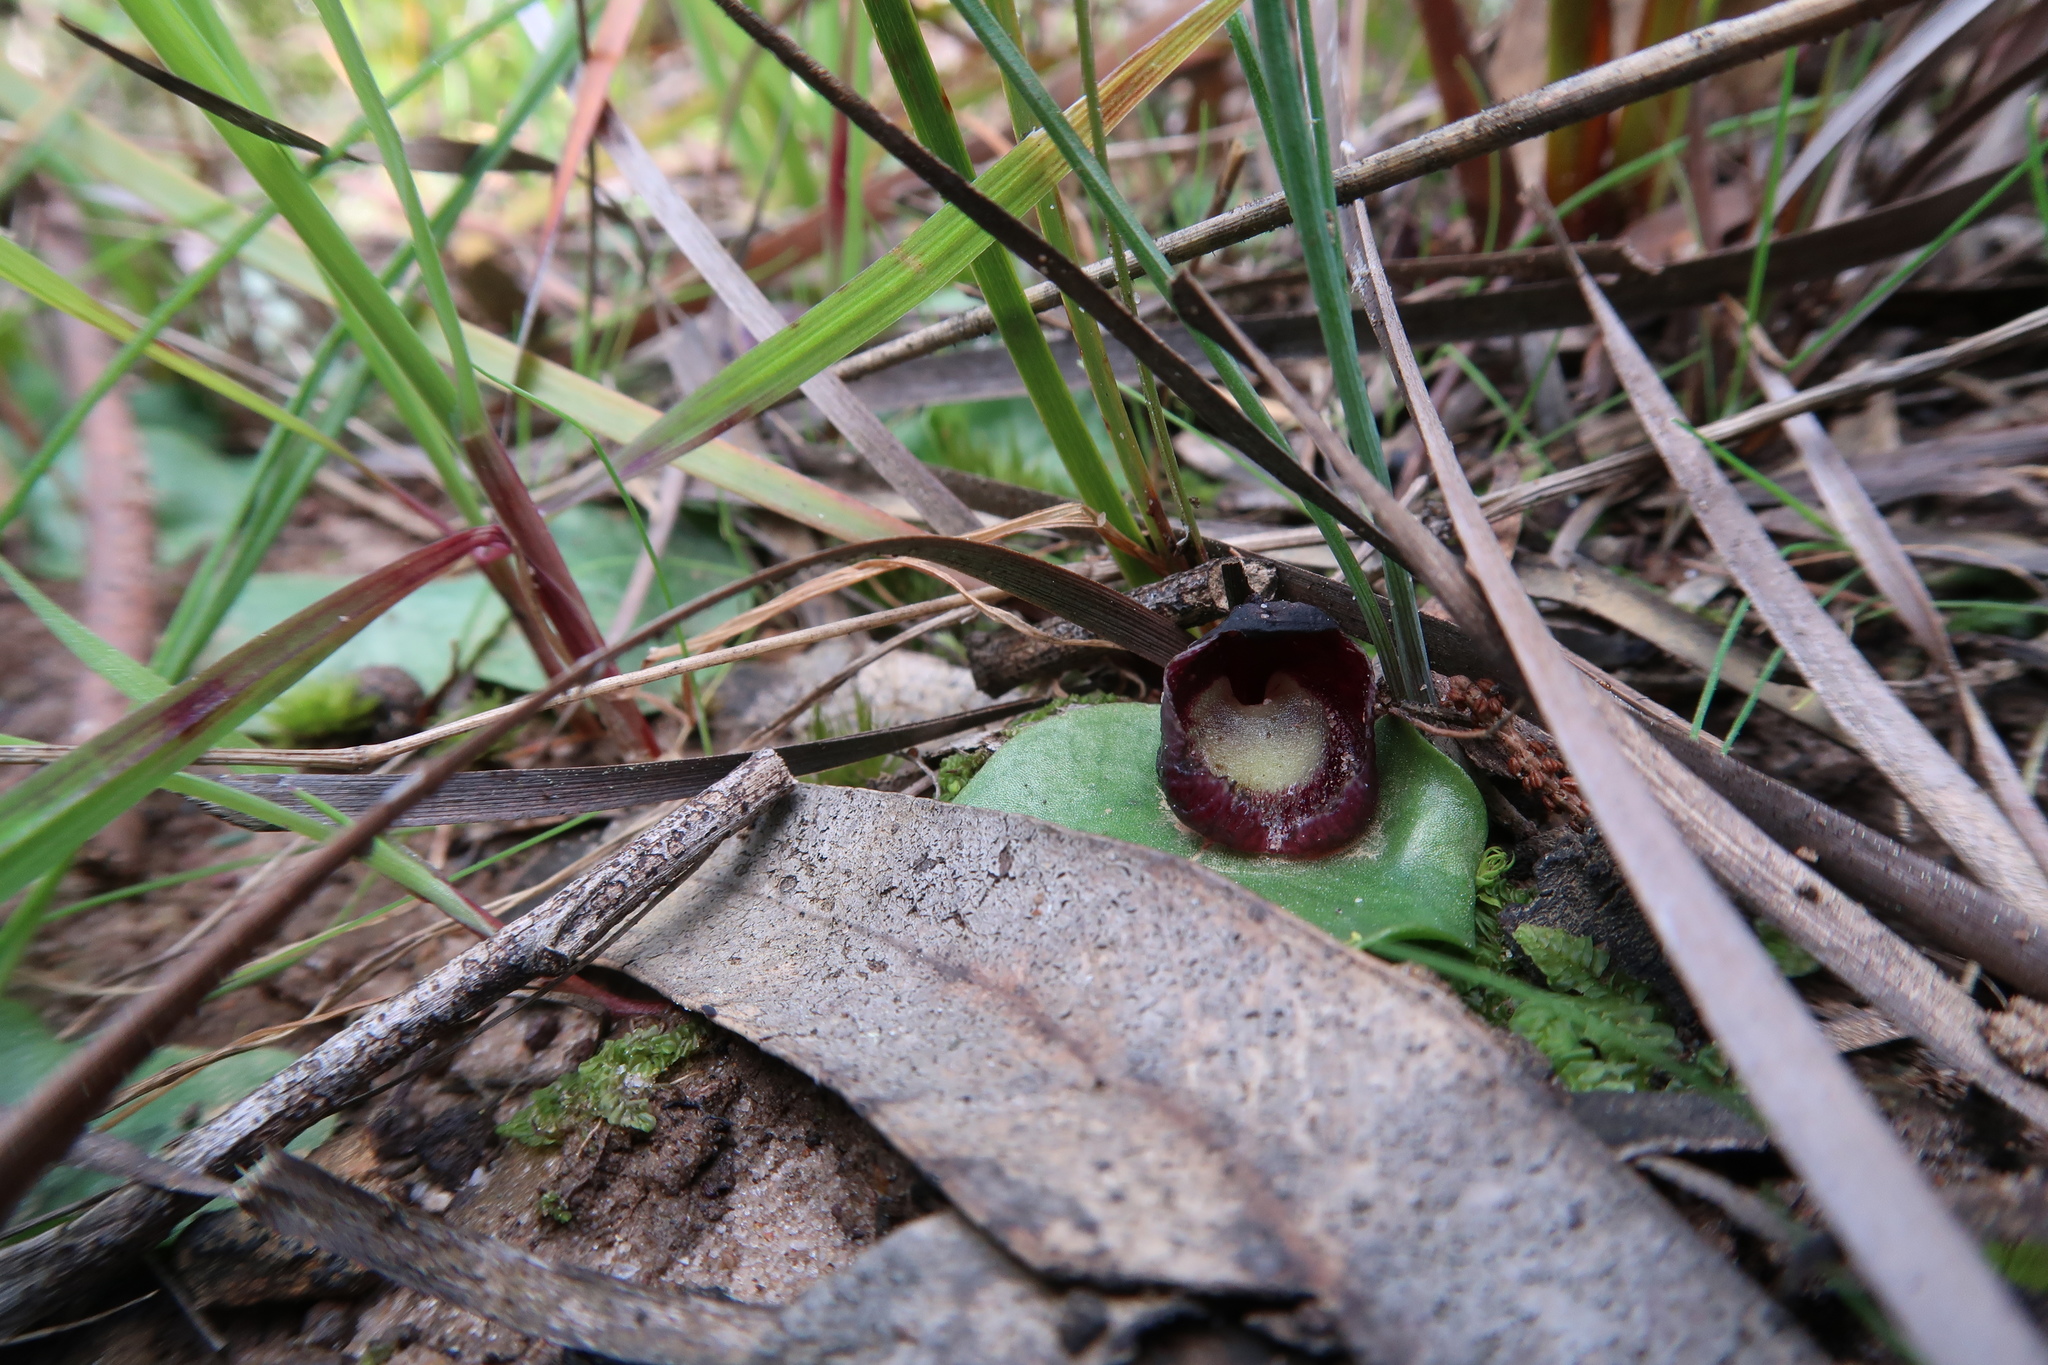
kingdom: Plantae
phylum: Tracheophyta
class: Liliopsida
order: Asparagales
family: Orchidaceae
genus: Corybas
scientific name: Corybas incurvus
